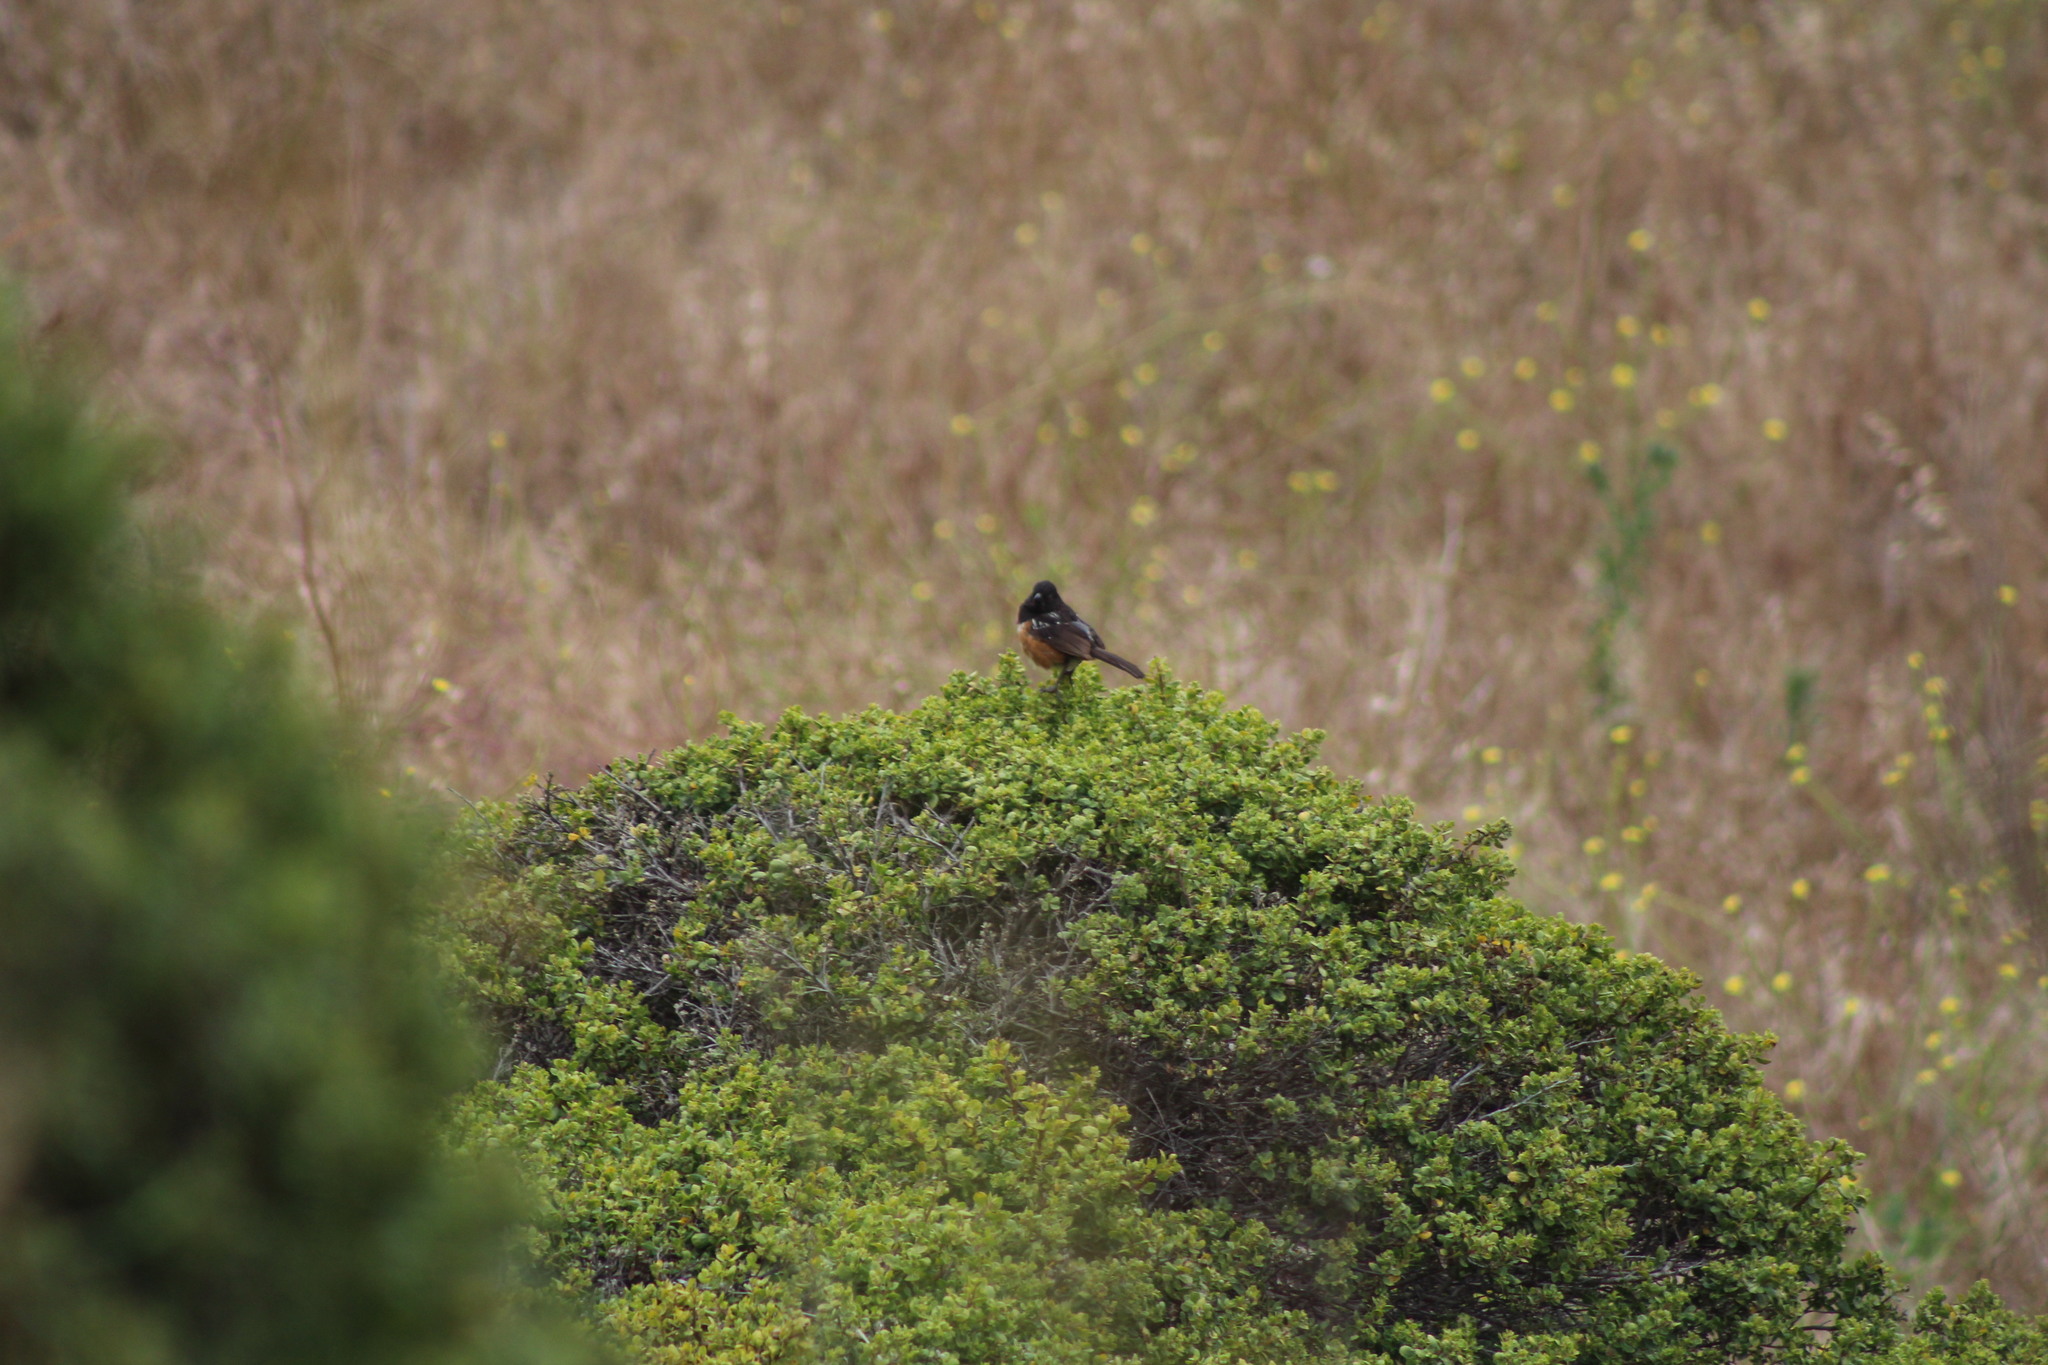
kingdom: Animalia
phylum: Chordata
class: Aves
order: Passeriformes
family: Passerellidae
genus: Pipilo
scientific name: Pipilo maculatus
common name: Spotted towhee
